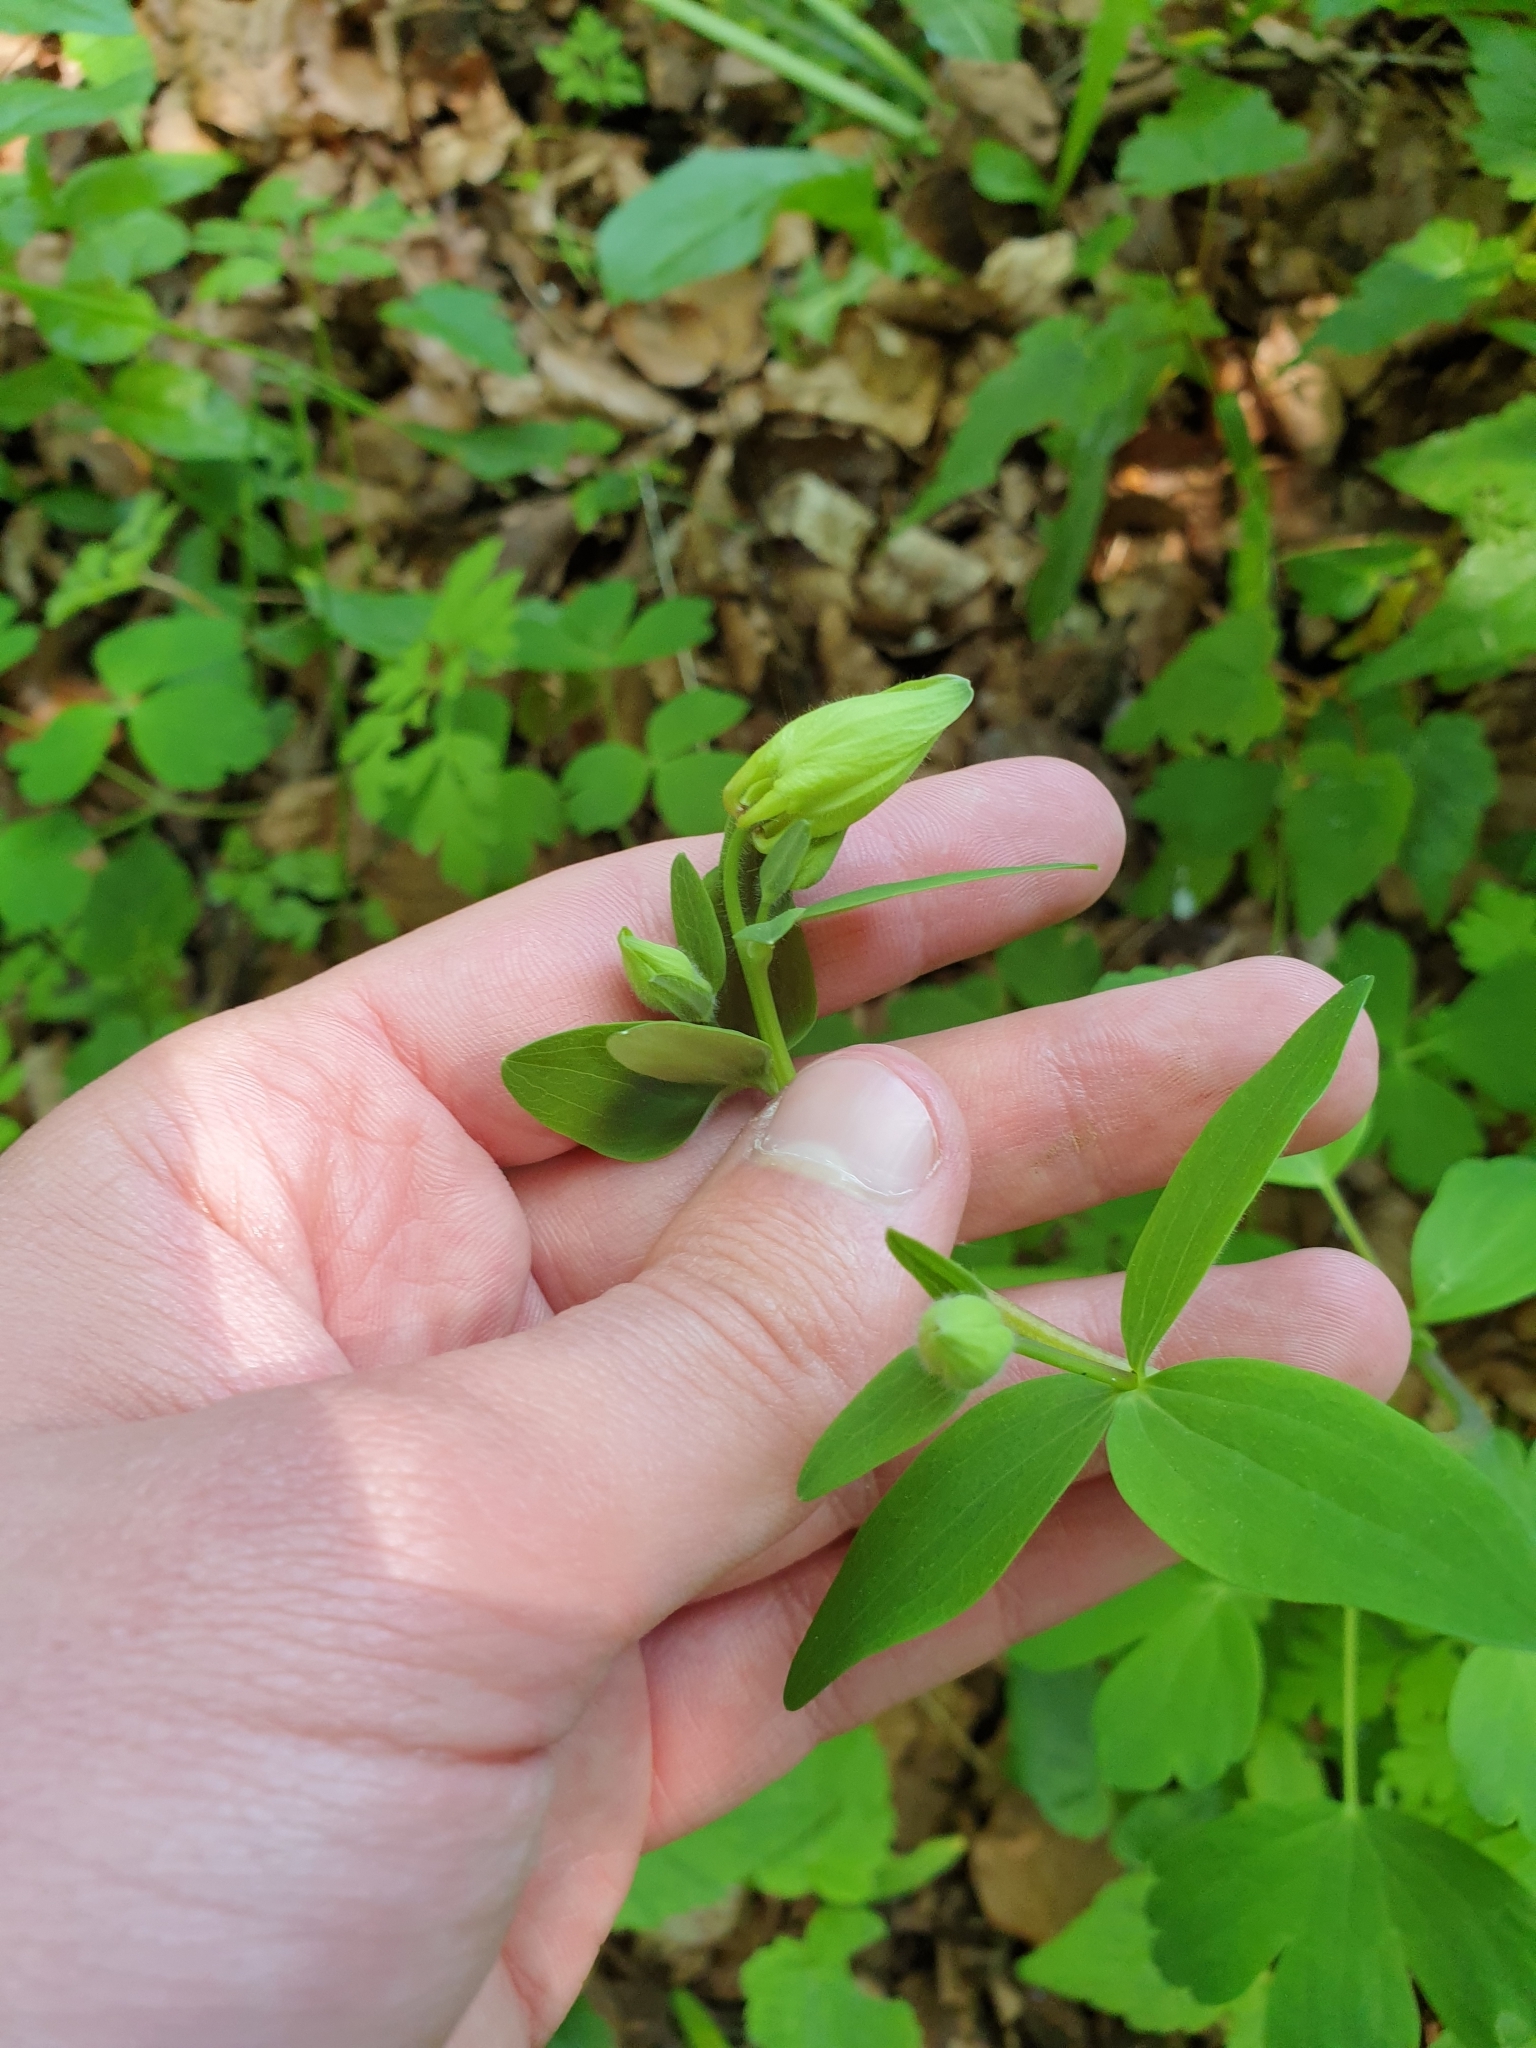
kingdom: Plantae
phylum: Tracheophyta
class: Magnoliopsida
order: Ranunculales
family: Ranunculaceae
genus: Aquilegia
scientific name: Aquilegia vulgaris
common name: Columbine
